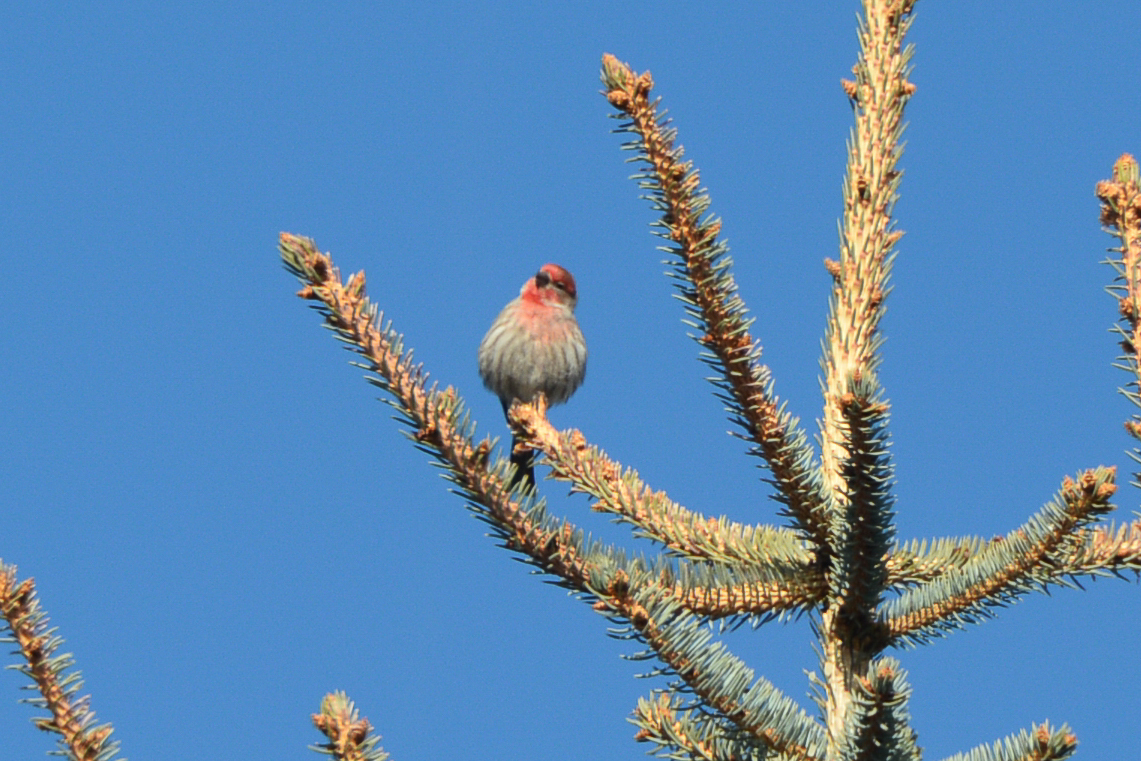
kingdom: Animalia
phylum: Chordata
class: Aves
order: Passeriformes
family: Fringillidae
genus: Haemorhous
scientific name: Haemorhous mexicanus
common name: House finch
